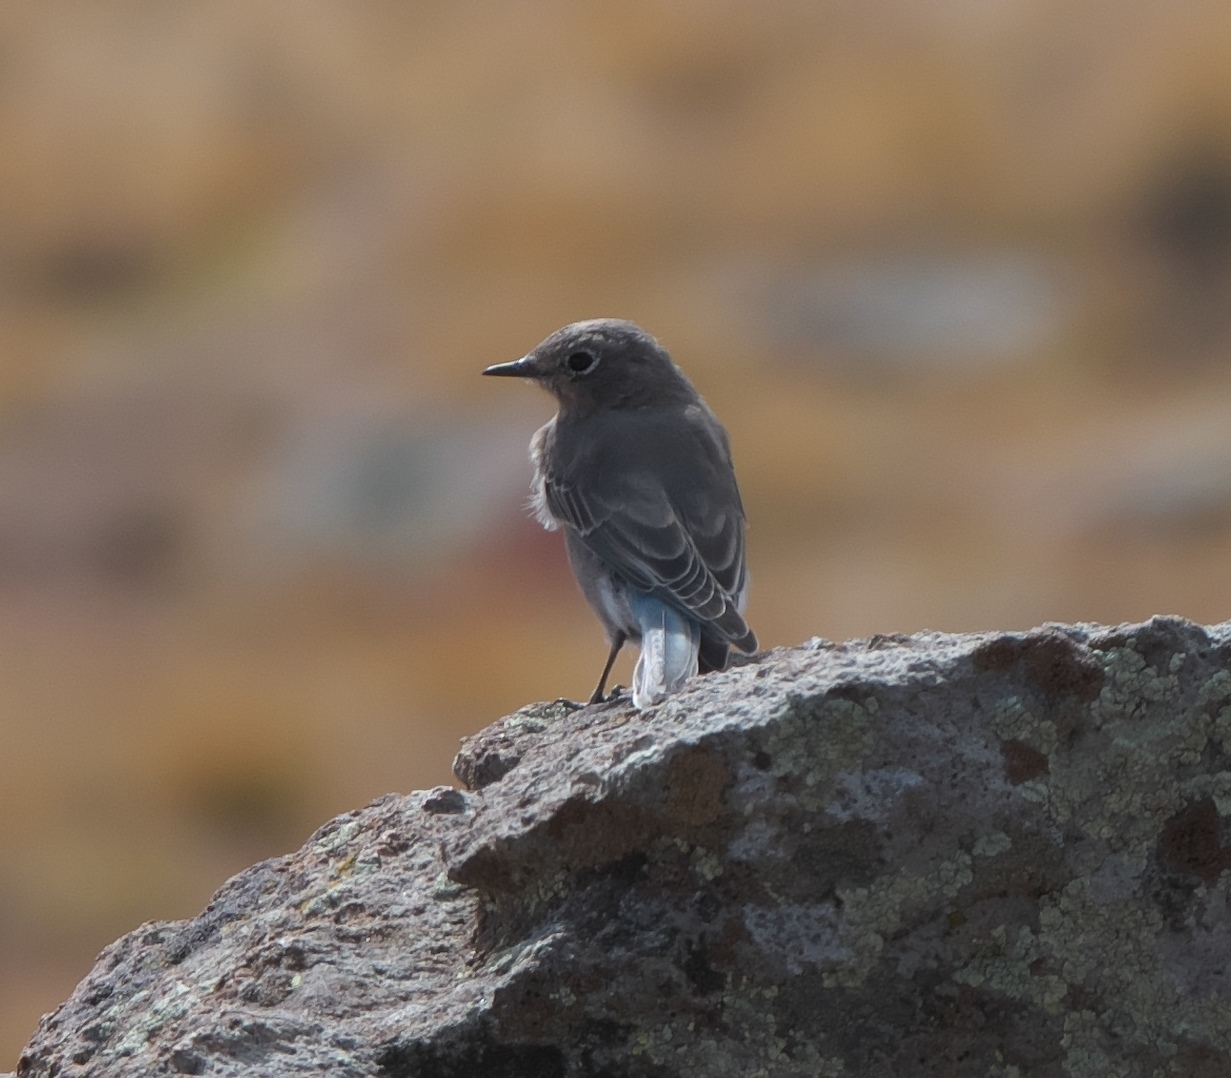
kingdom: Animalia
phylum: Chordata
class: Aves
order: Passeriformes
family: Turdidae
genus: Sialia
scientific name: Sialia currucoides
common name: Mountain bluebird
